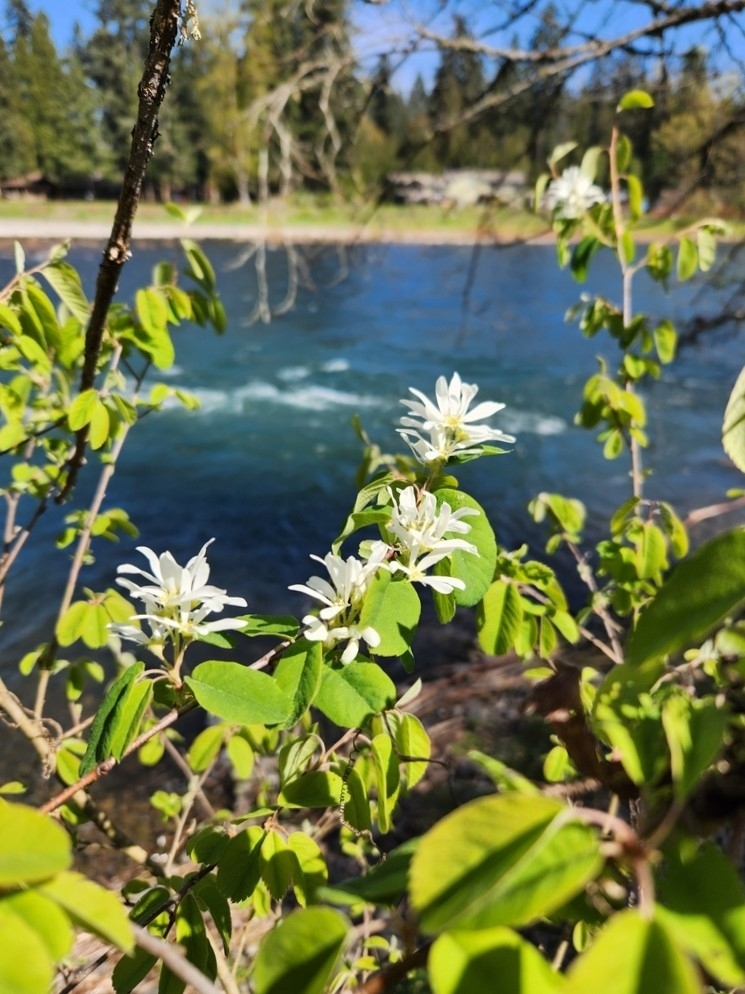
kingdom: Plantae
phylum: Tracheophyta
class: Magnoliopsida
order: Rosales
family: Rosaceae
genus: Amelanchier
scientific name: Amelanchier alnifolia
